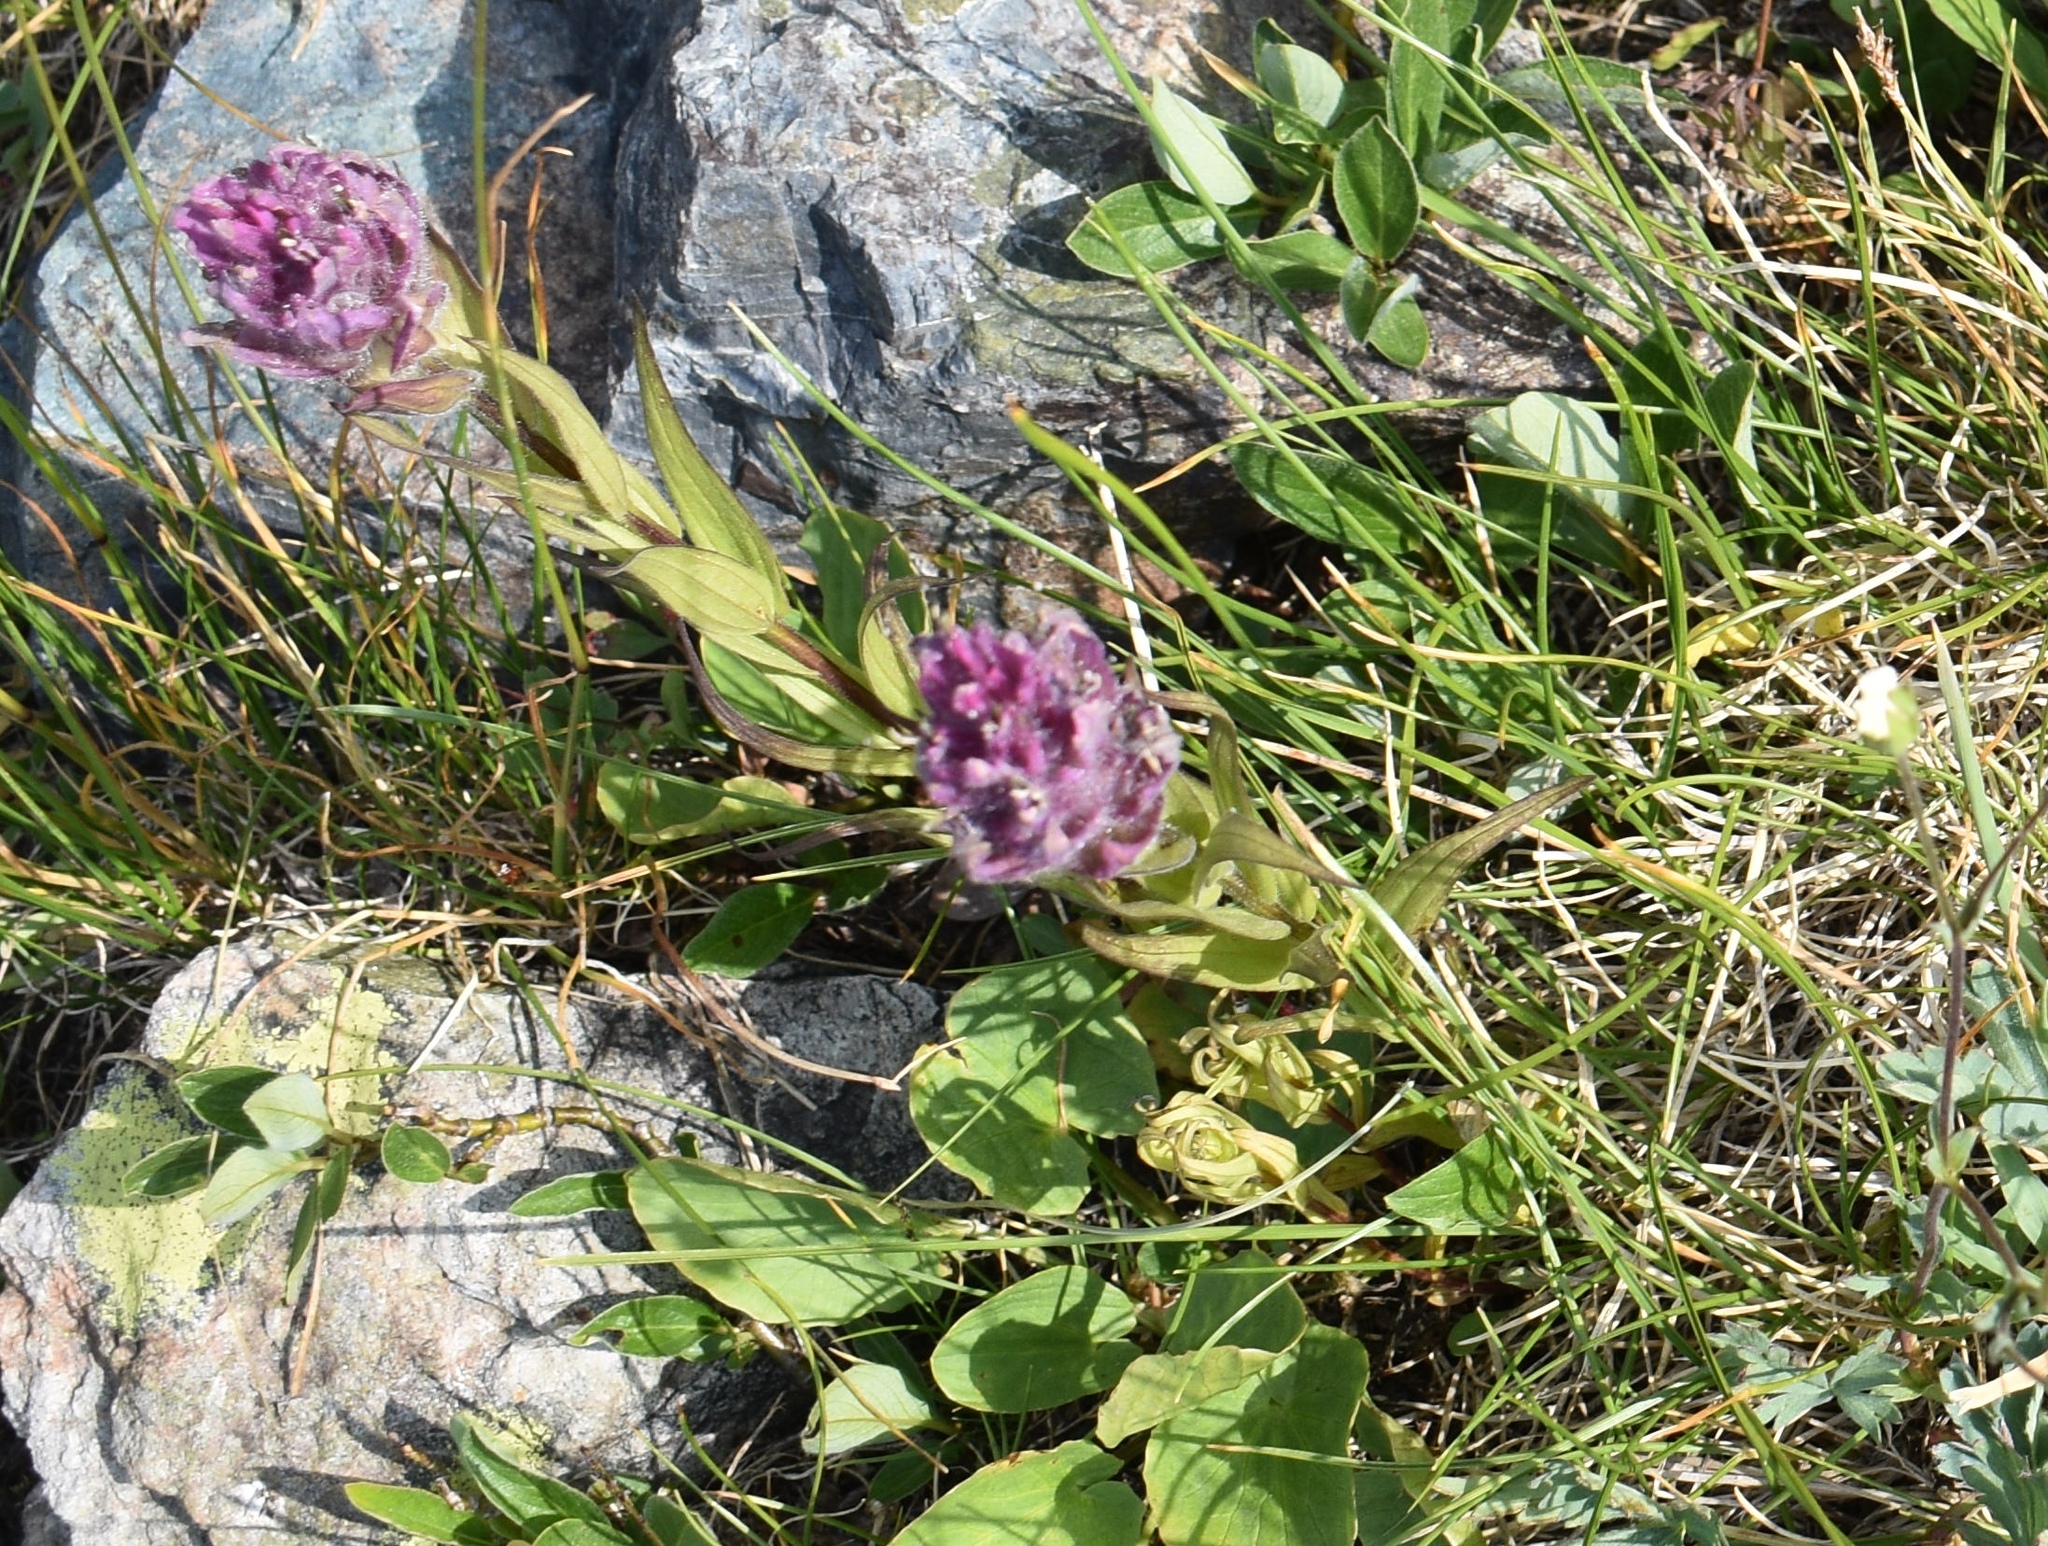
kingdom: Plantae
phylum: Tracheophyta
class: Magnoliopsida
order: Lamiales
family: Orobanchaceae
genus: Castilleja
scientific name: Castilleja rhexifolia
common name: Rocky mountain paintbrush
